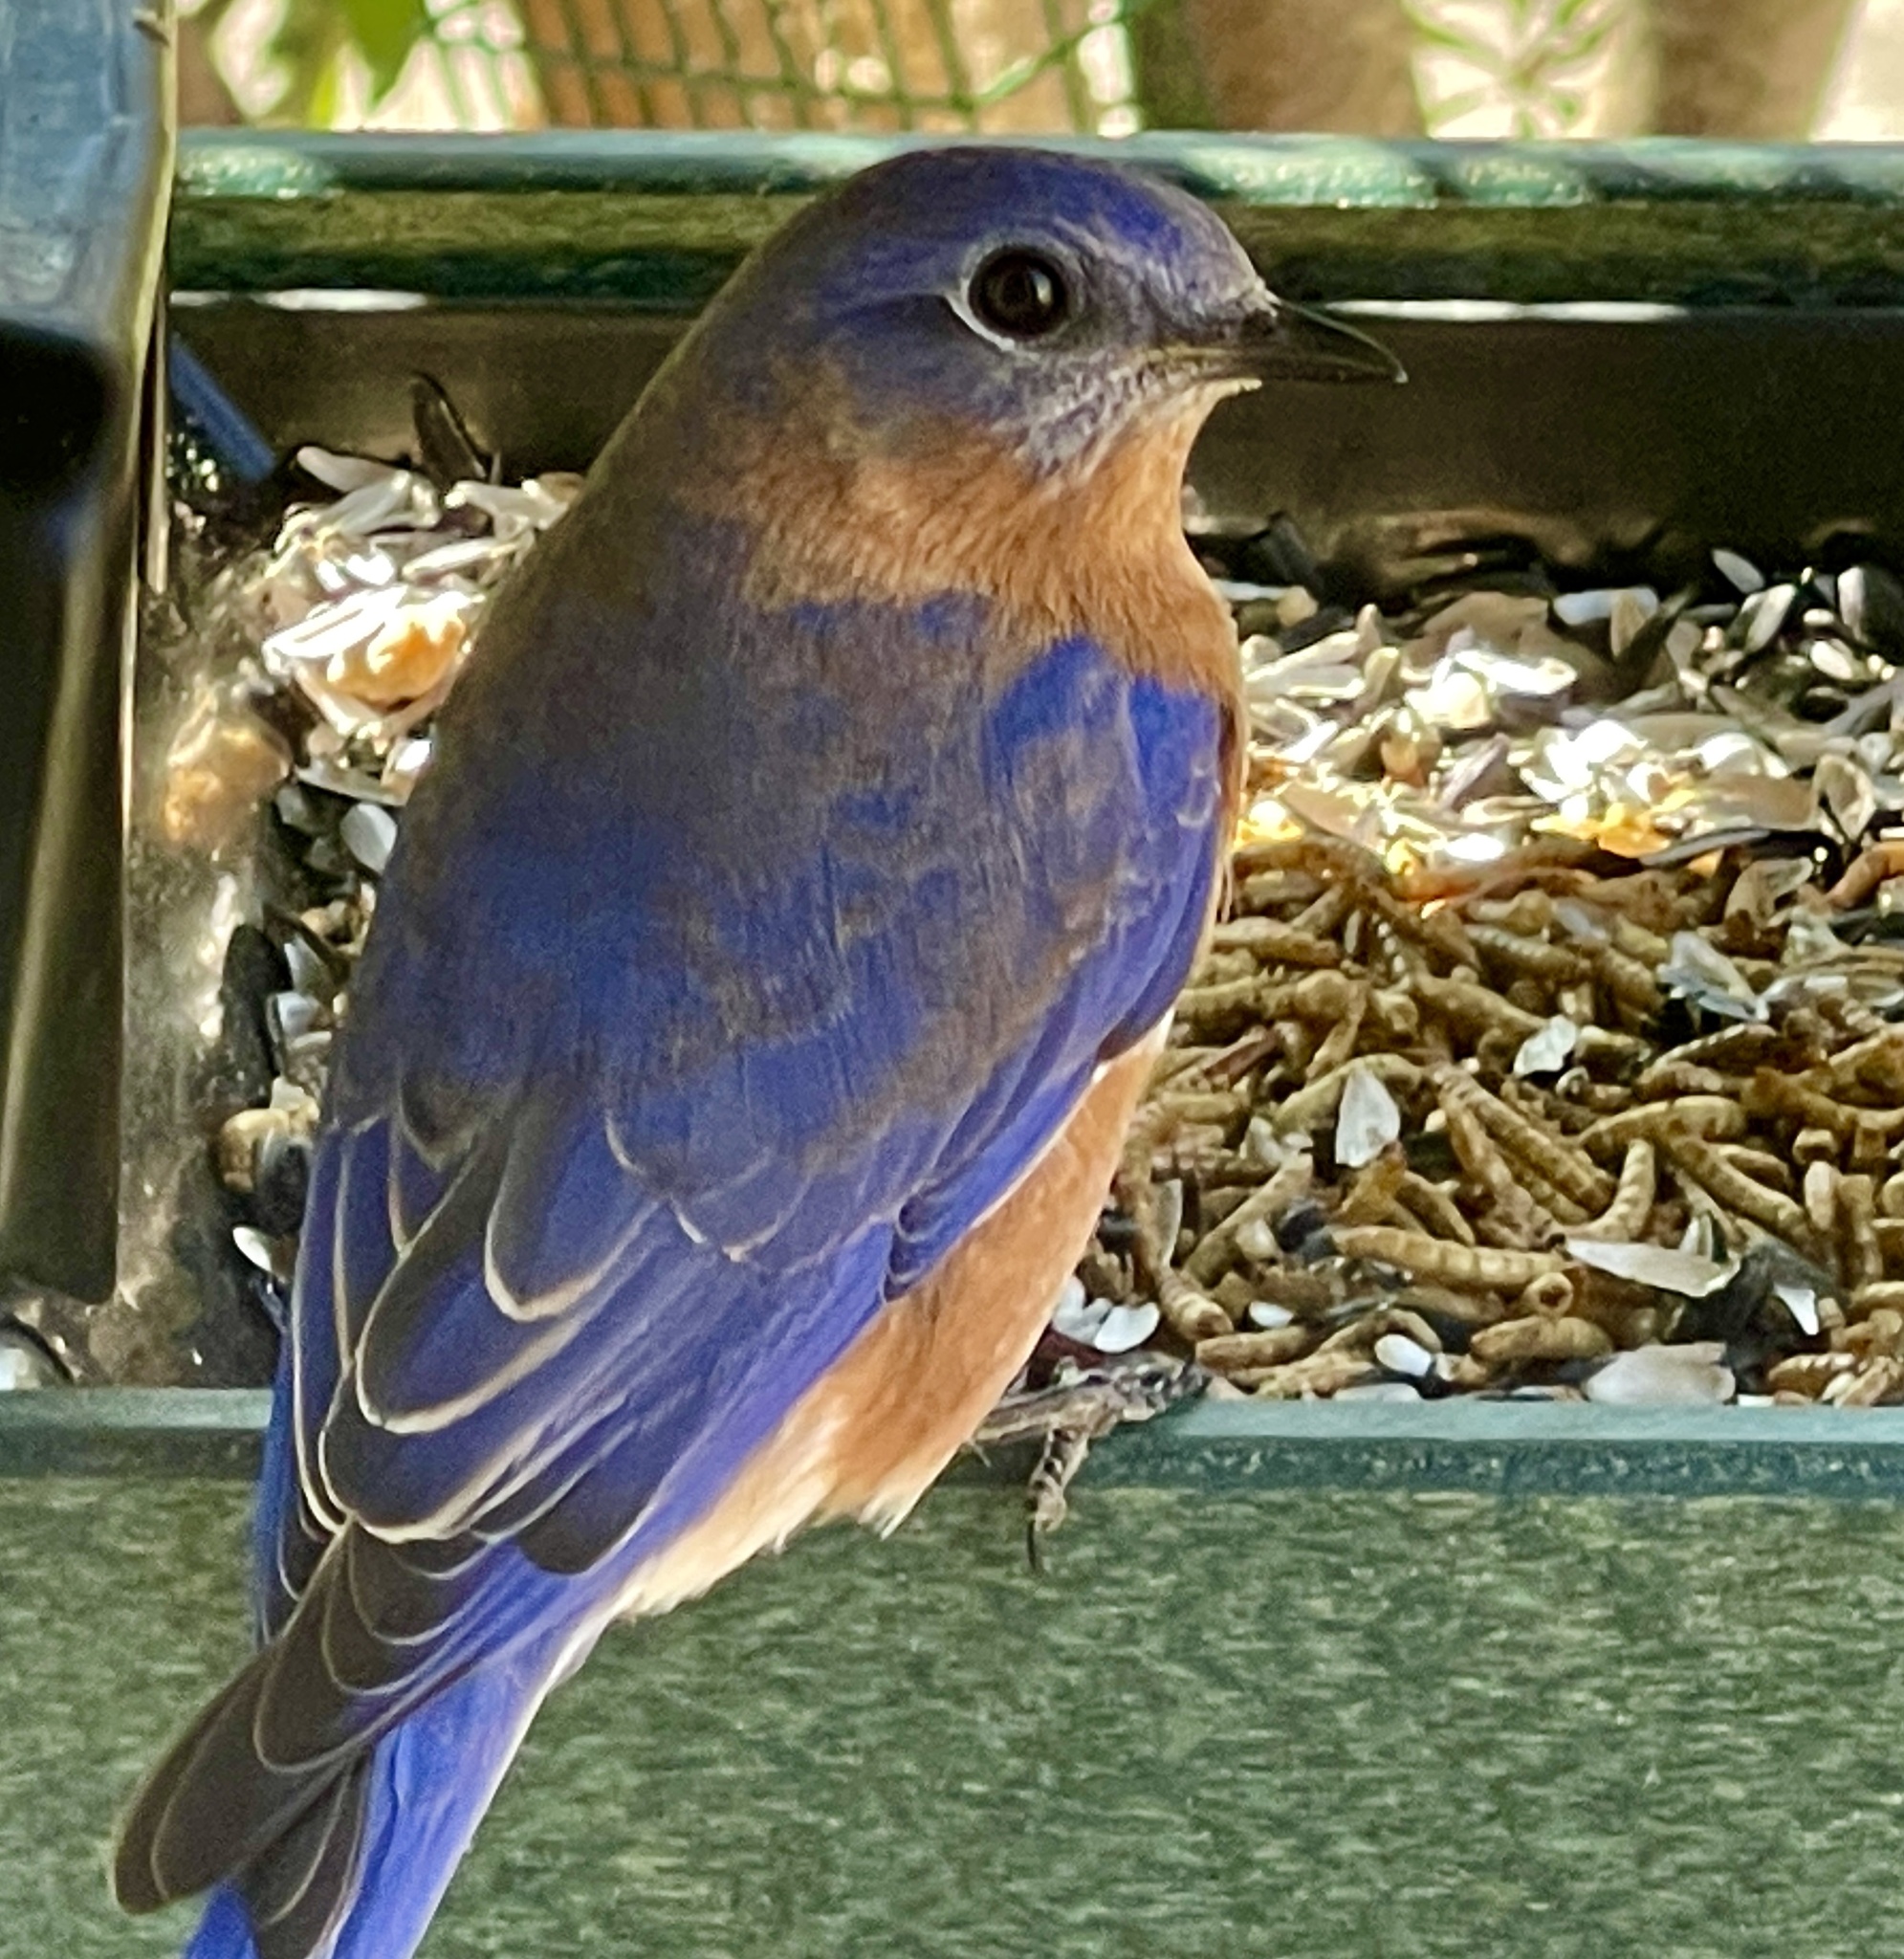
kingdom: Animalia
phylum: Chordata
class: Aves
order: Passeriformes
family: Turdidae
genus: Sialia
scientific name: Sialia sialis
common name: Eastern bluebird
